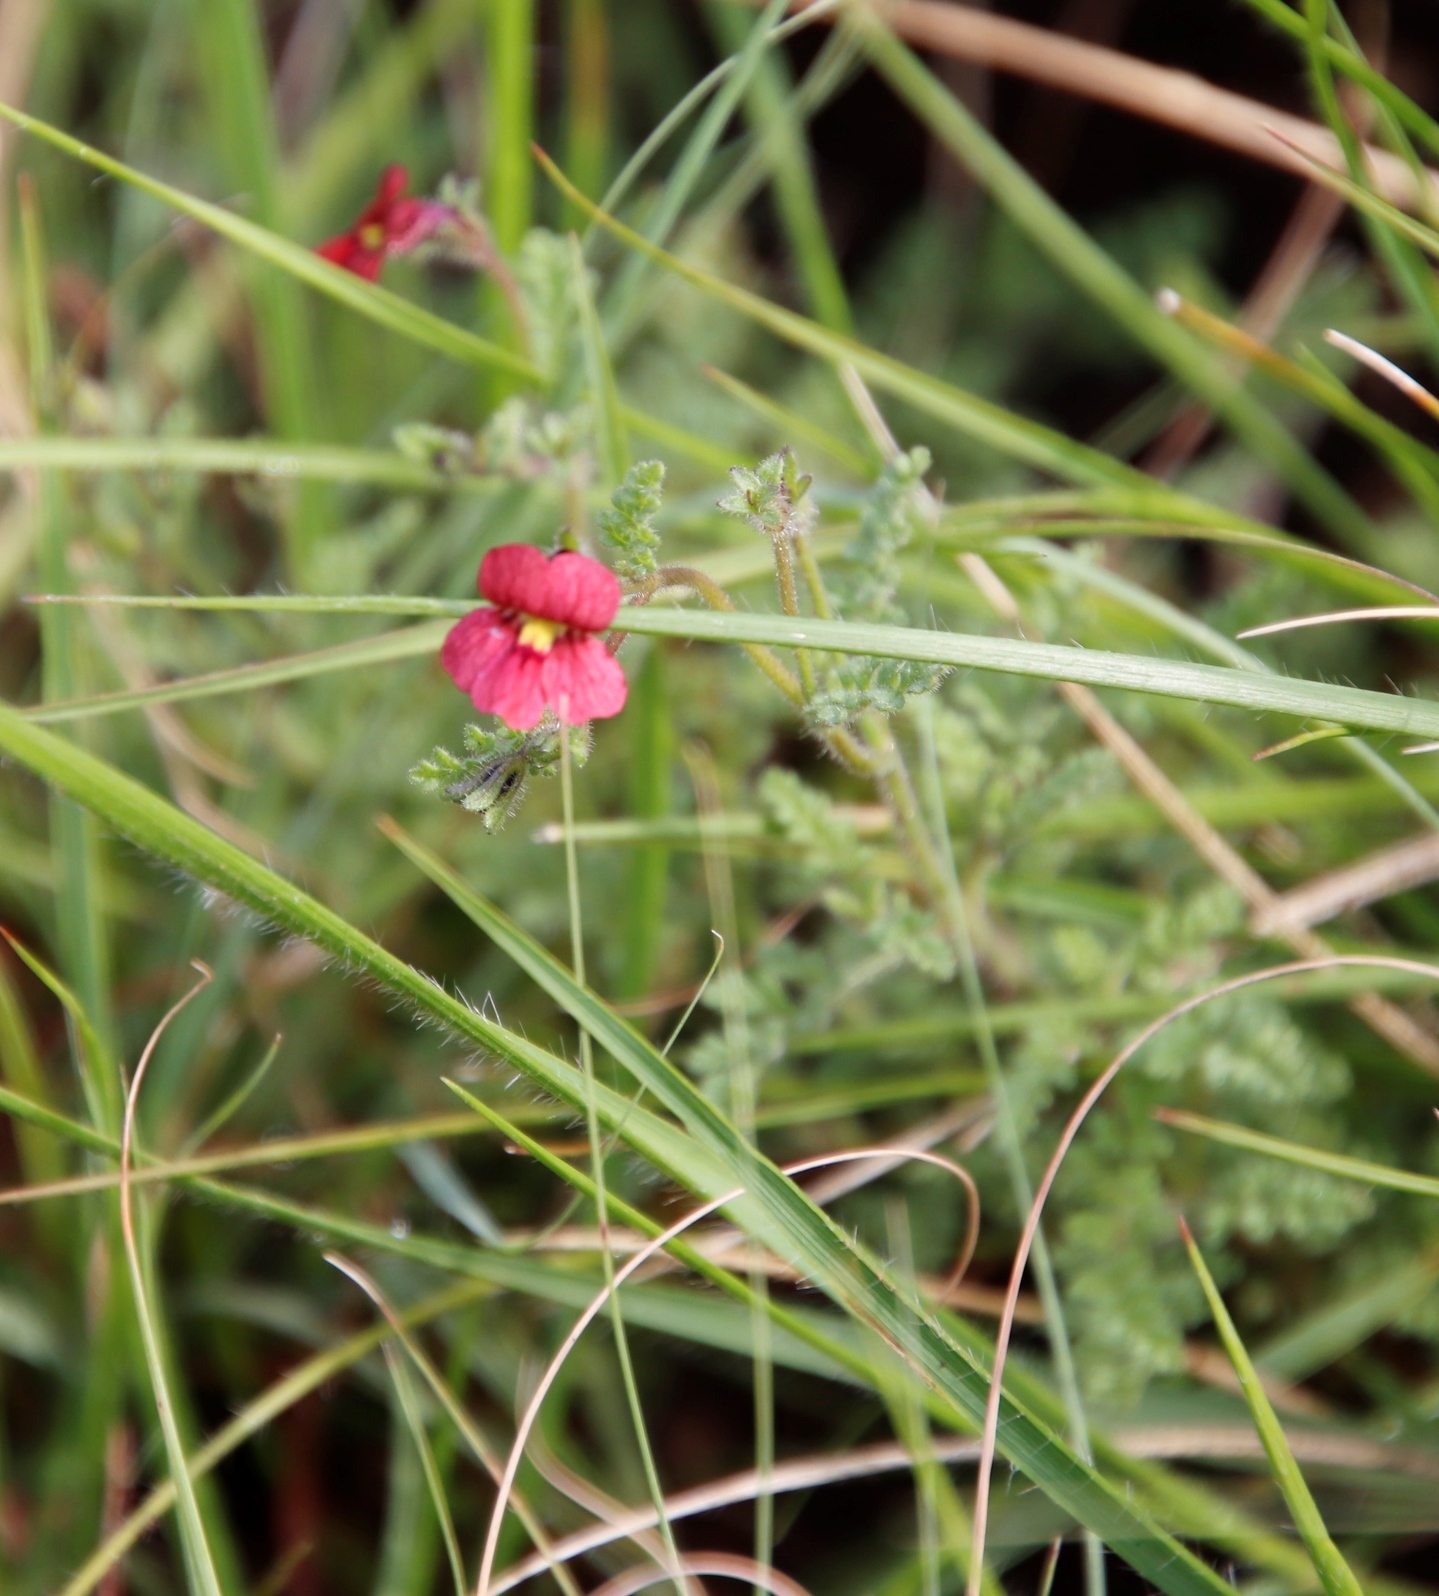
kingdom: Plantae
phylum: Tracheophyta
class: Magnoliopsida
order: Lamiales
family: Scrophulariaceae
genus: Jamesbrittenia
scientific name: Jamesbrittenia breviflora
